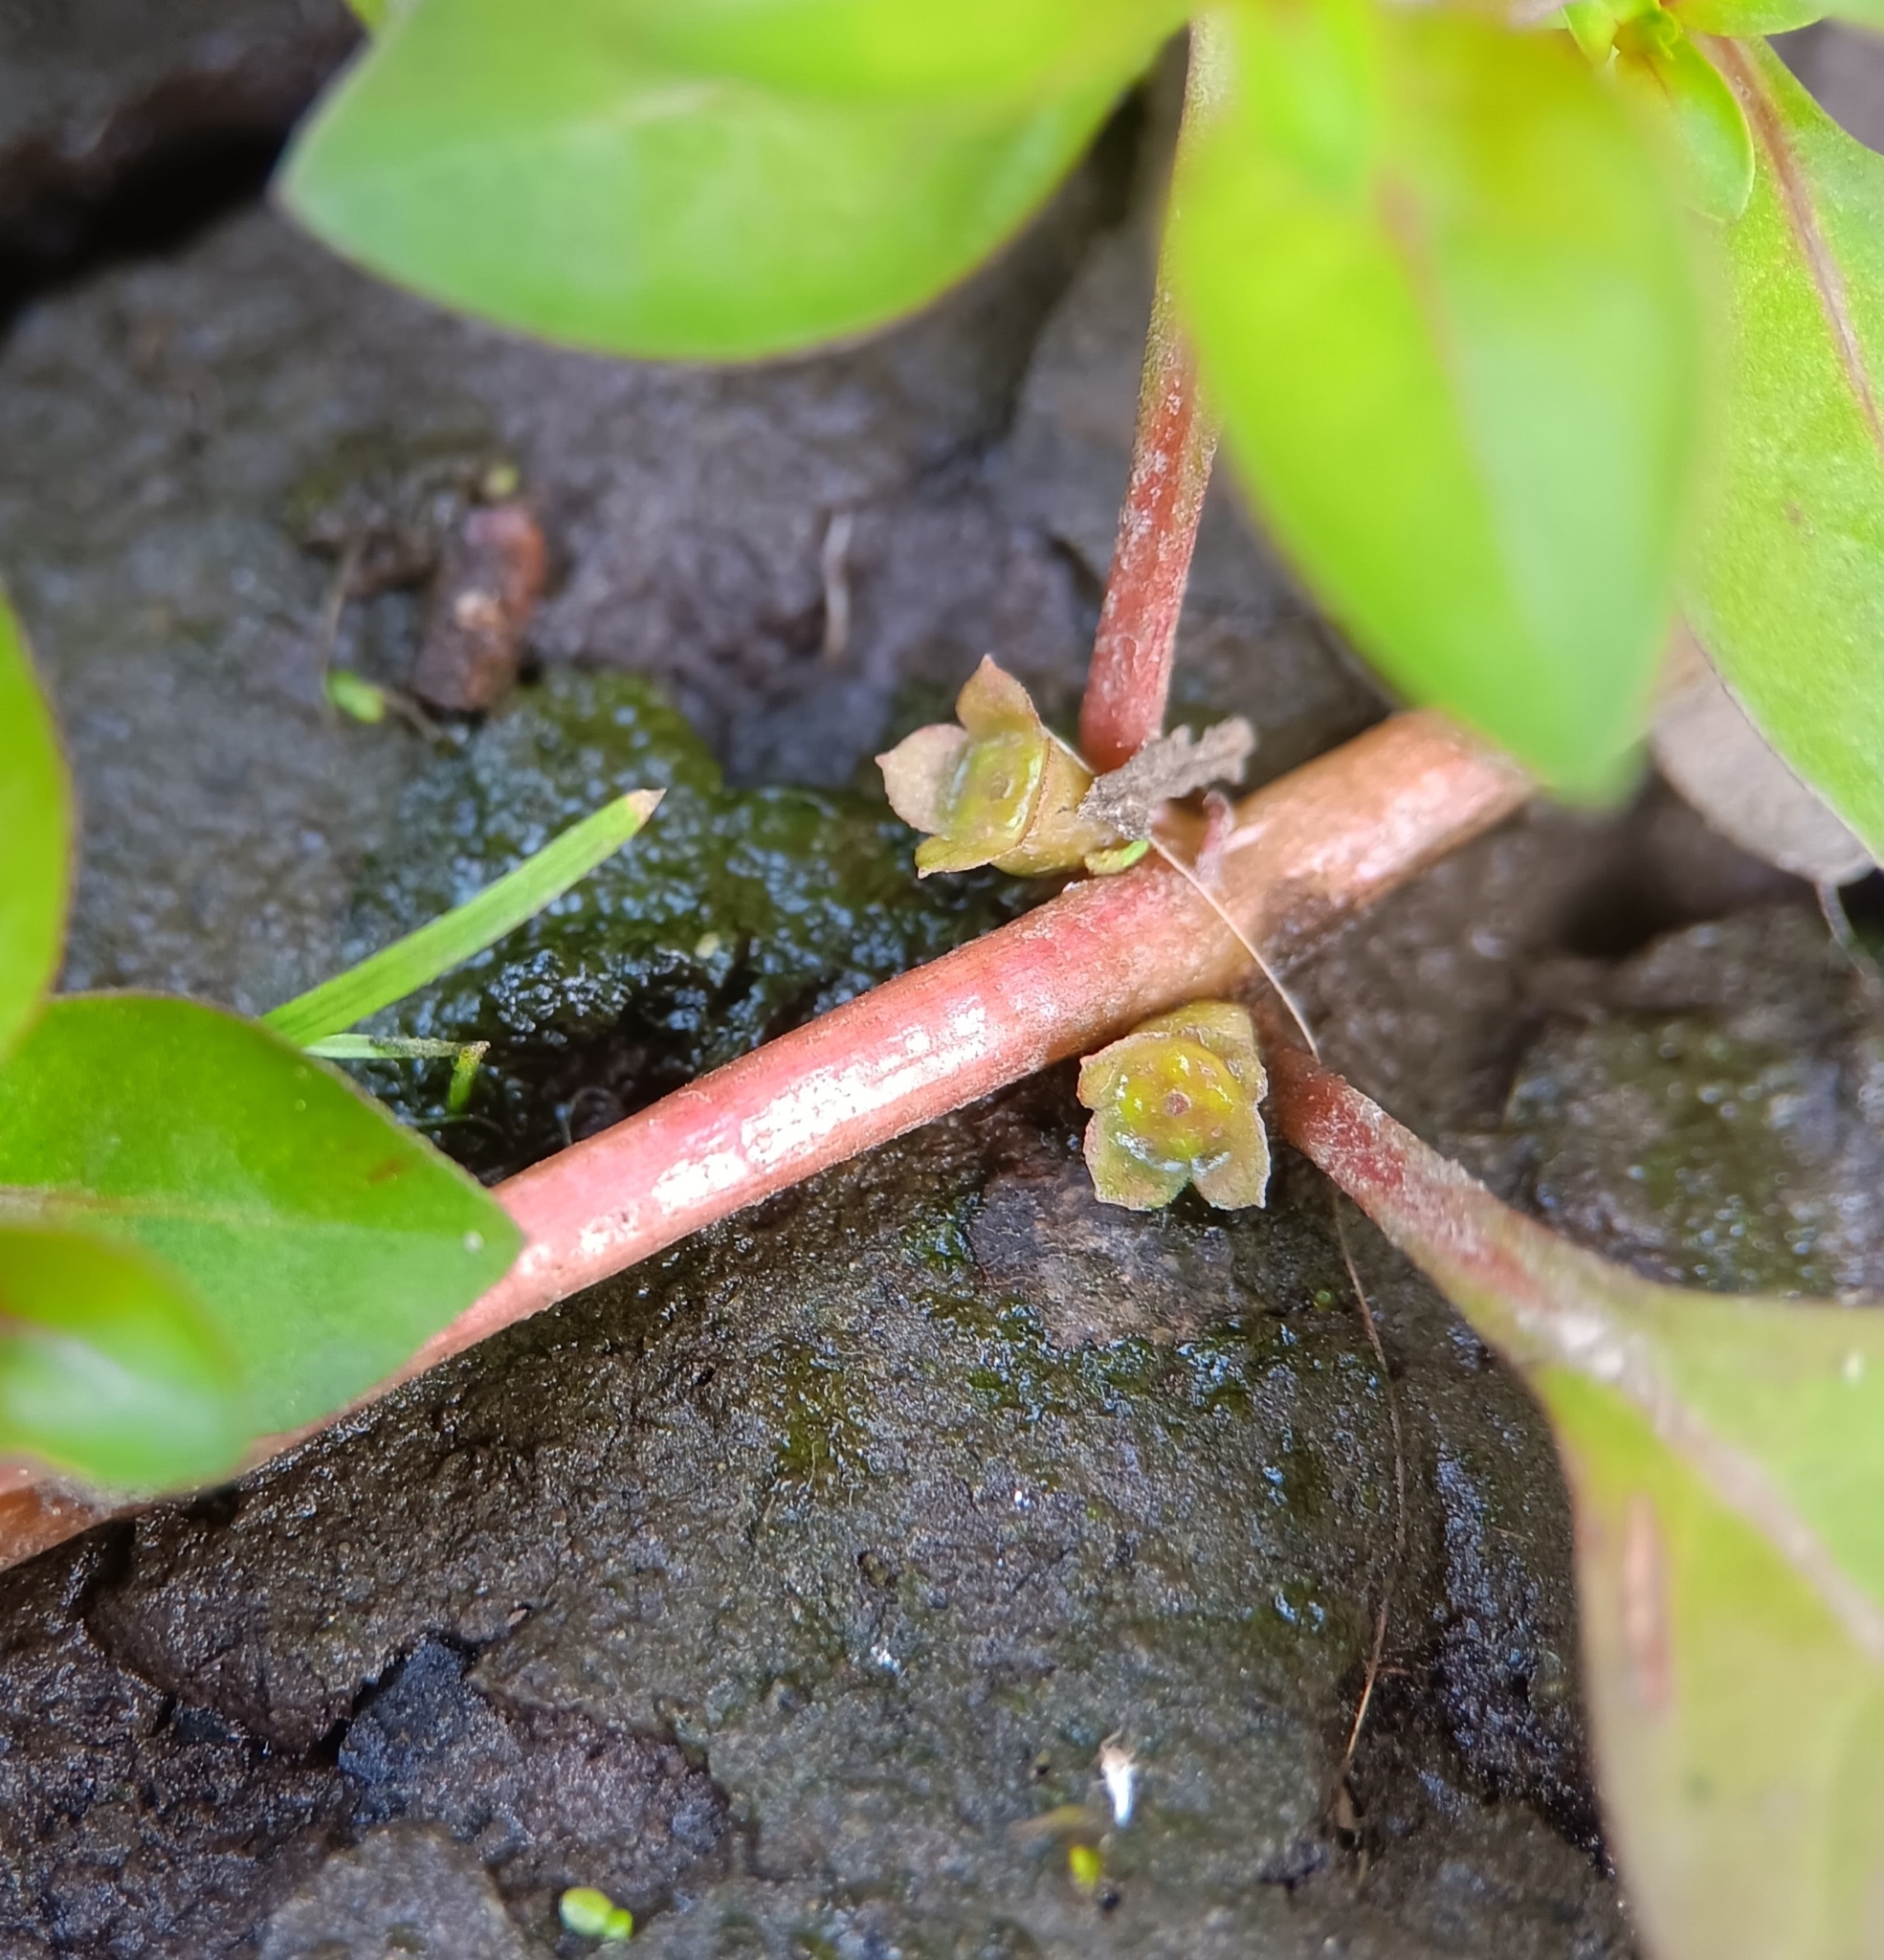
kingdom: Plantae
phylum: Tracheophyta
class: Magnoliopsida
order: Myrtales
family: Onagraceae
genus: Ludwigia
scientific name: Ludwigia palustris
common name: Hampshire-purslane
